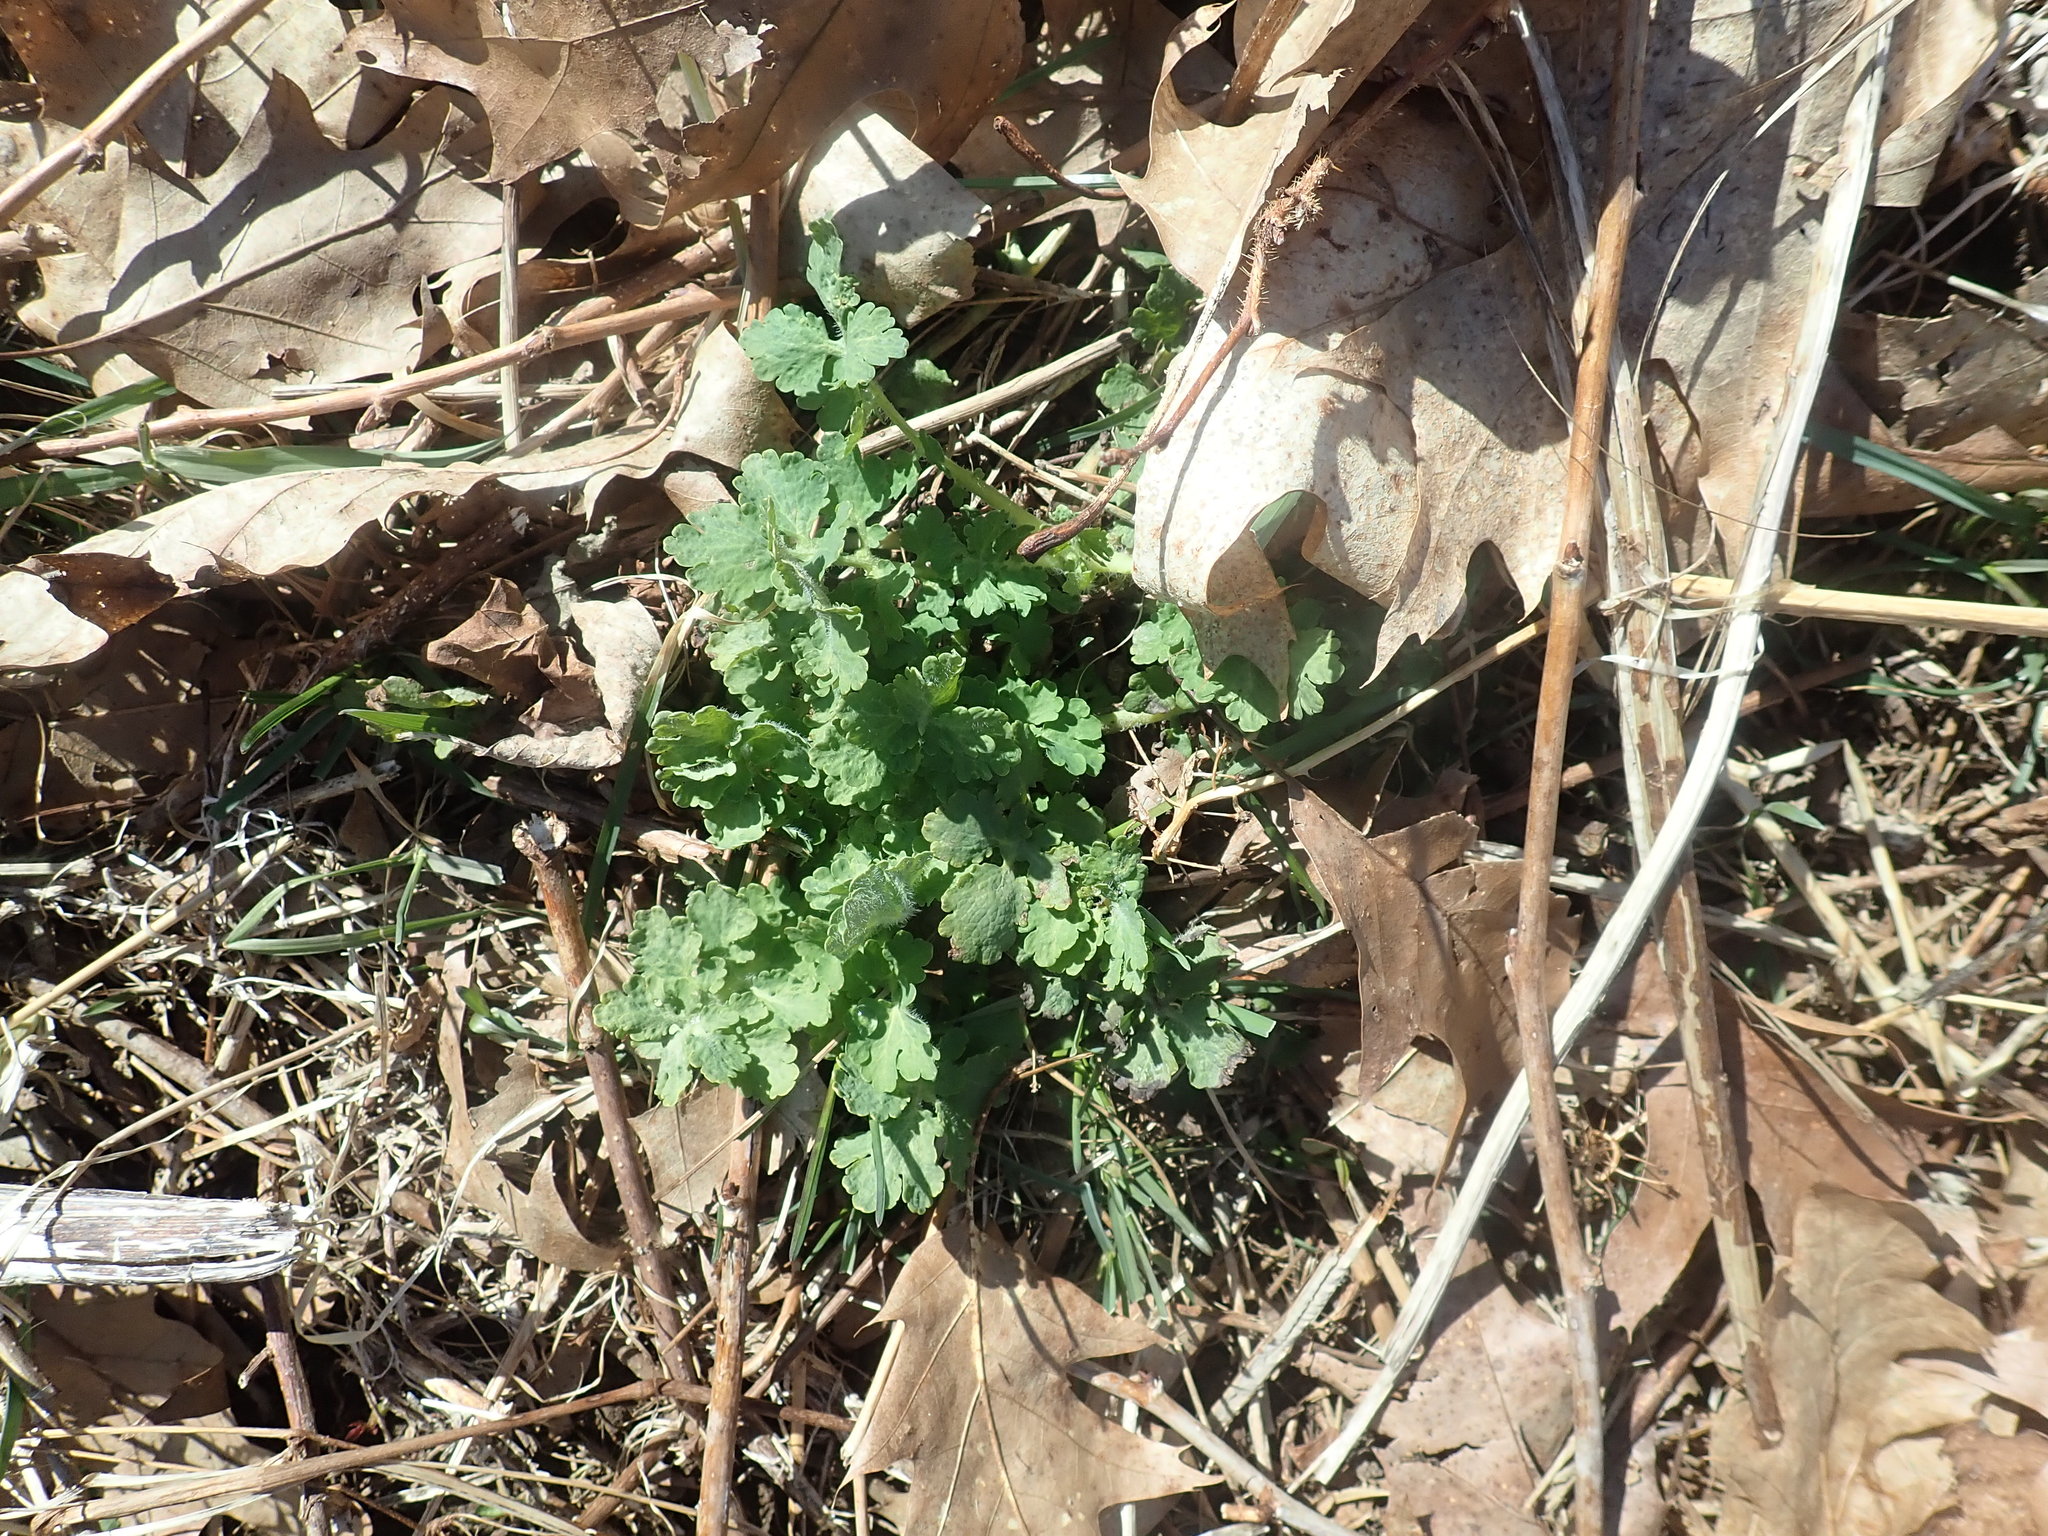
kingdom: Plantae
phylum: Tracheophyta
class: Magnoliopsida
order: Ranunculales
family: Papaveraceae
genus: Chelidonium
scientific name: Chelidonium majus
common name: Greater celandine
